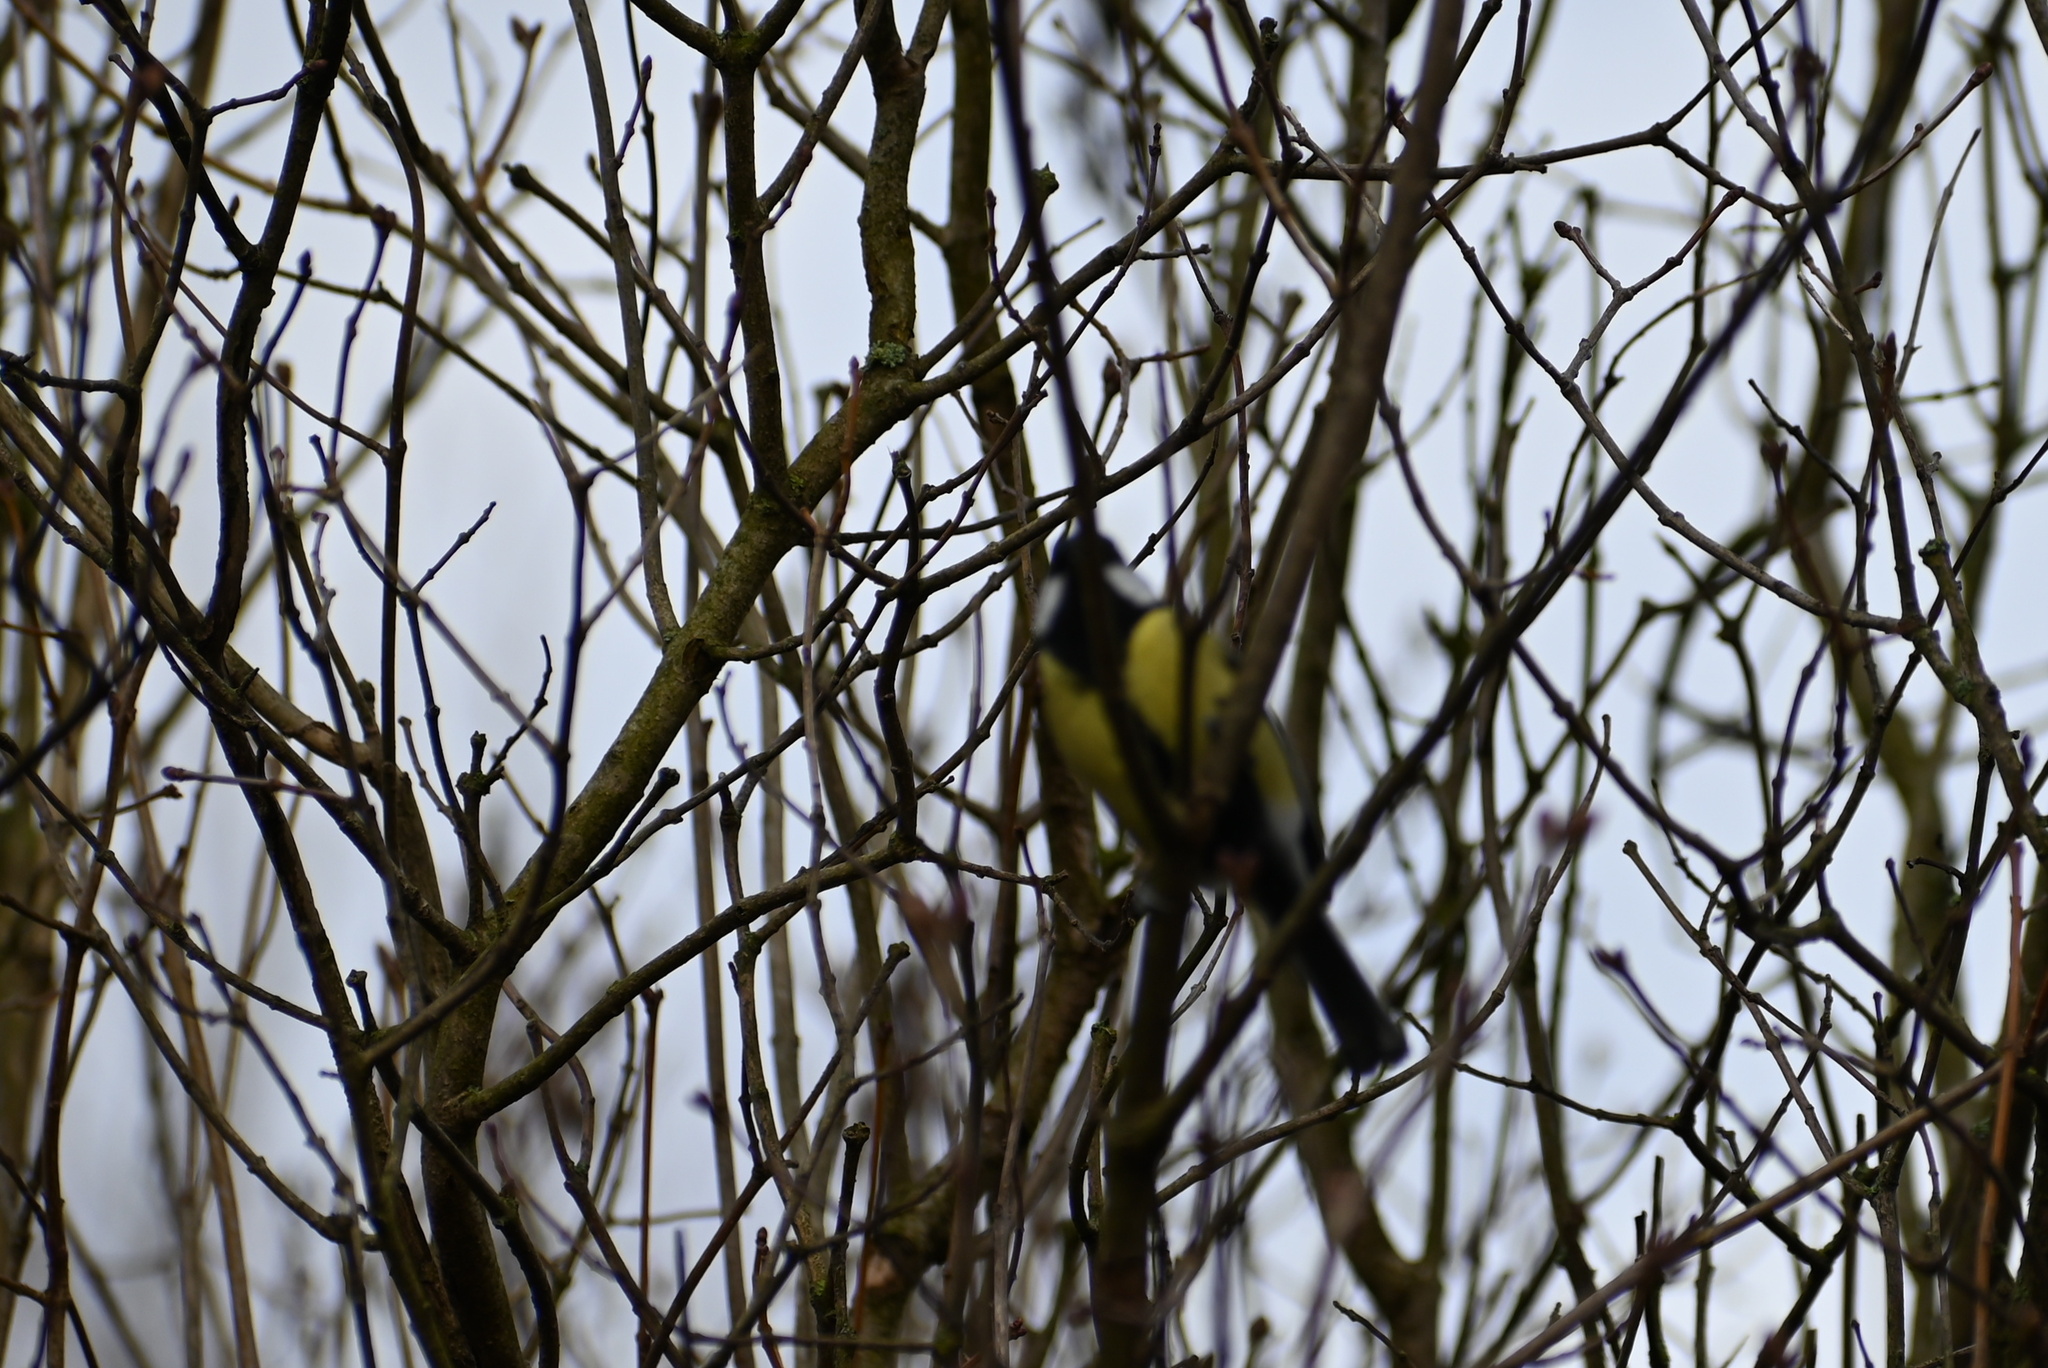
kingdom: Animalia
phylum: Chordata
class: Aves
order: Passeriformes
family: Paridae
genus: Parus
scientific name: Parus major
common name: Great tit
